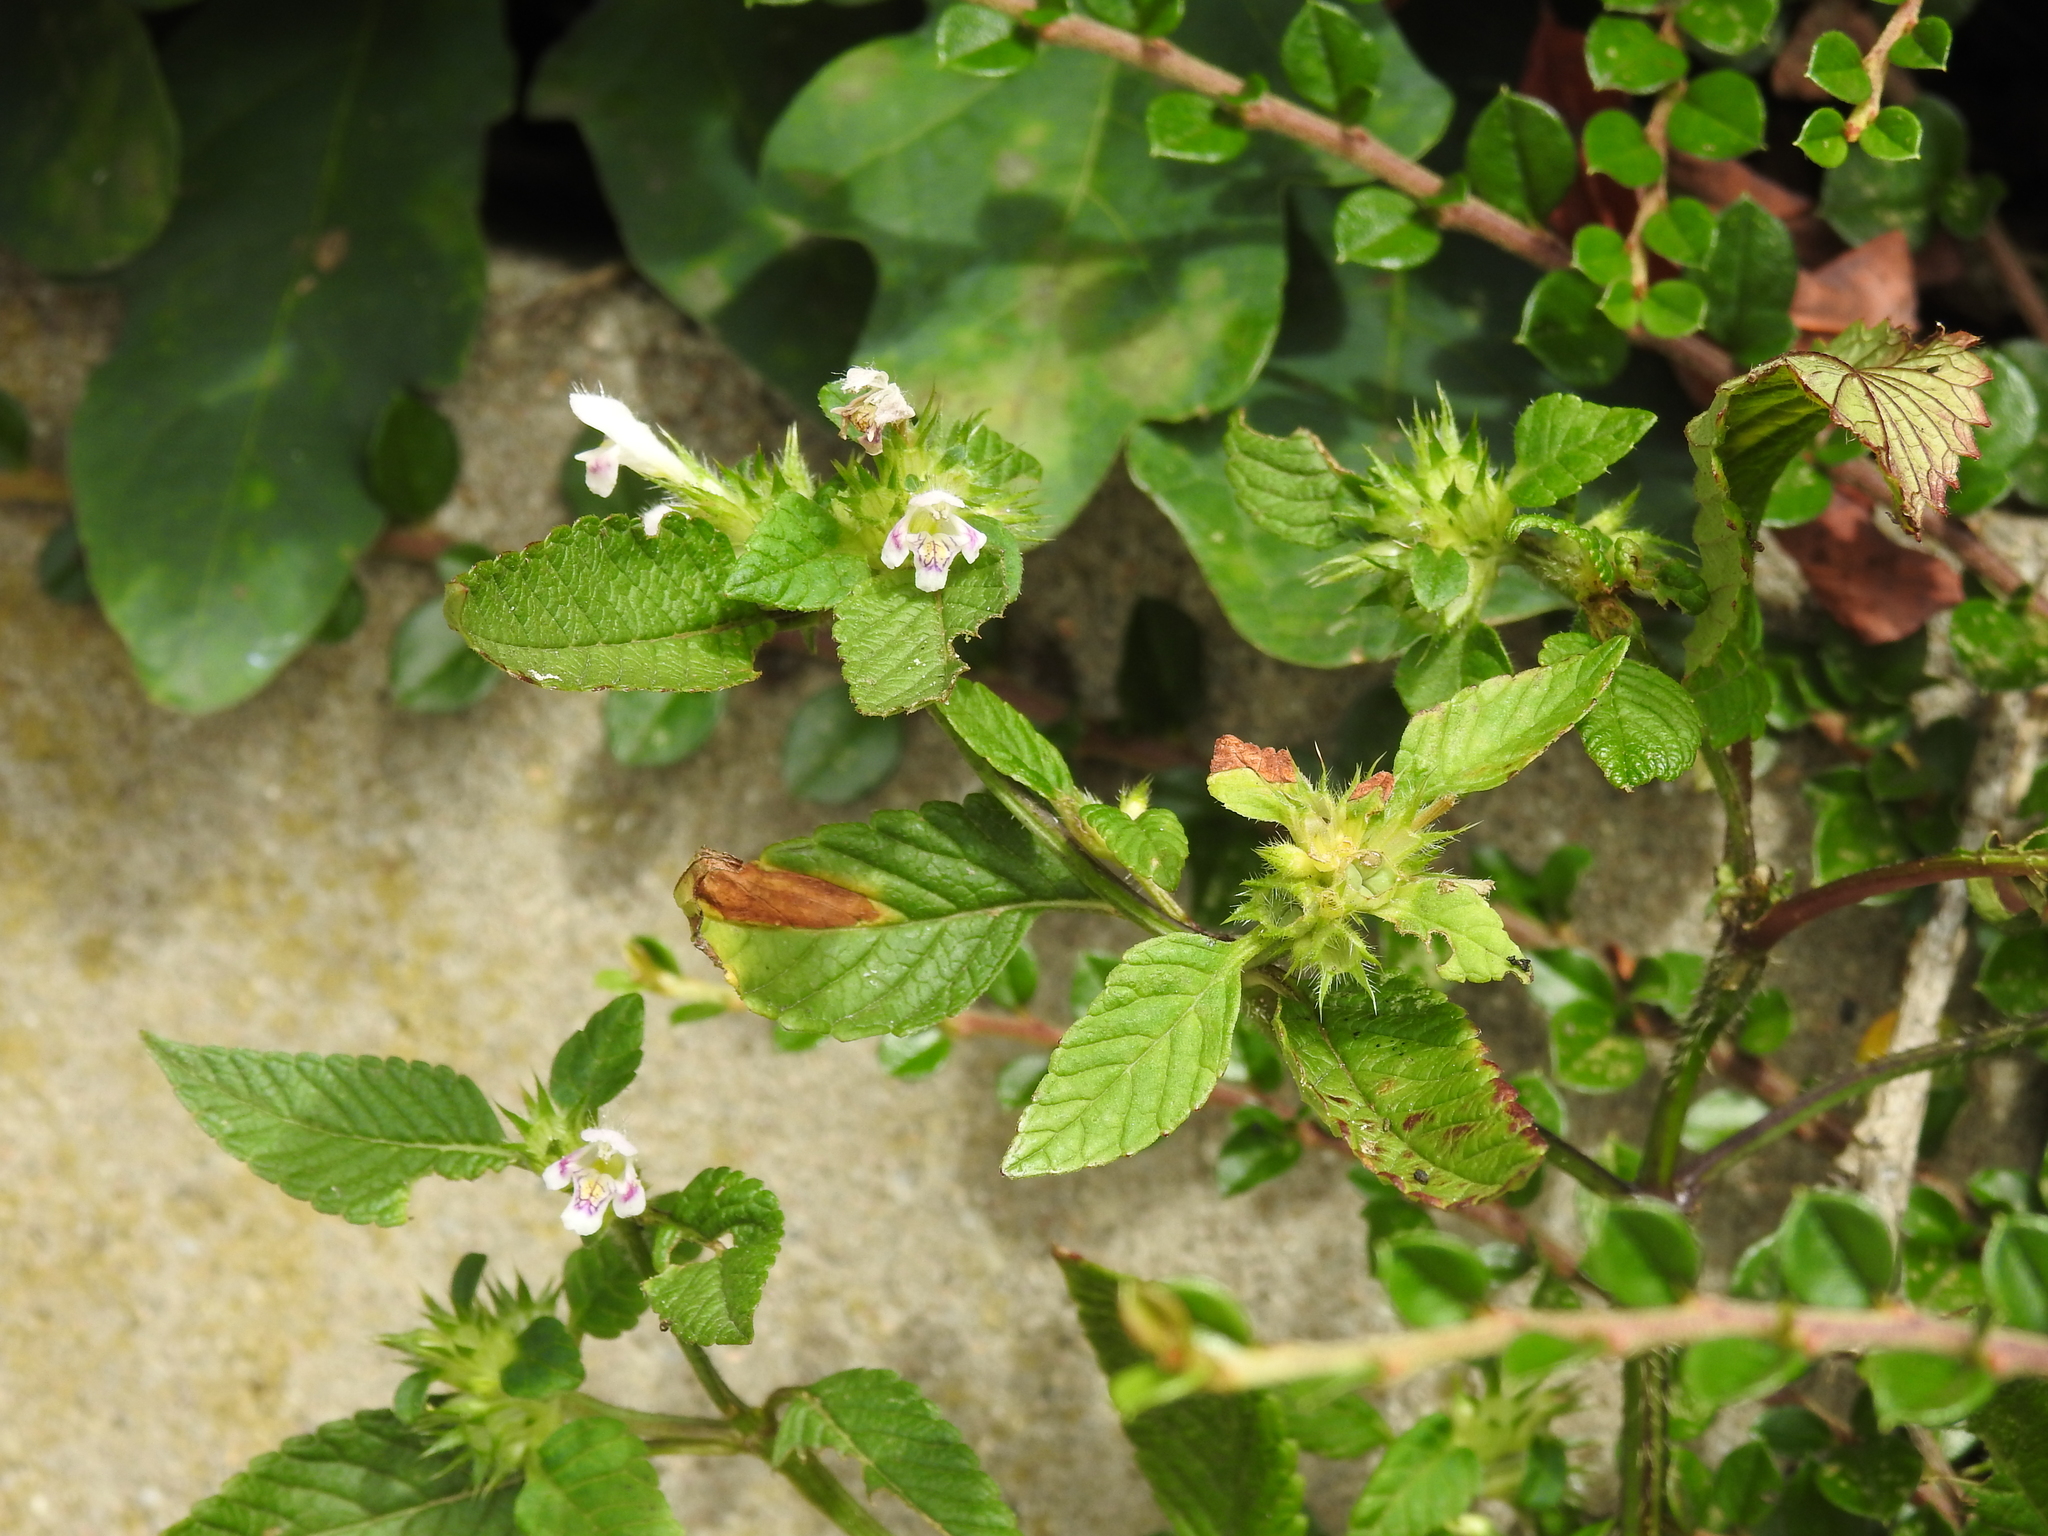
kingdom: Plantae
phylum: Tracheophyta
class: Magnoliopsida
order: Lamiales
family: Lamiaceae
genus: Galeopsis
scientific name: Galeopsis tetrahit
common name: Common hemp-nettle
